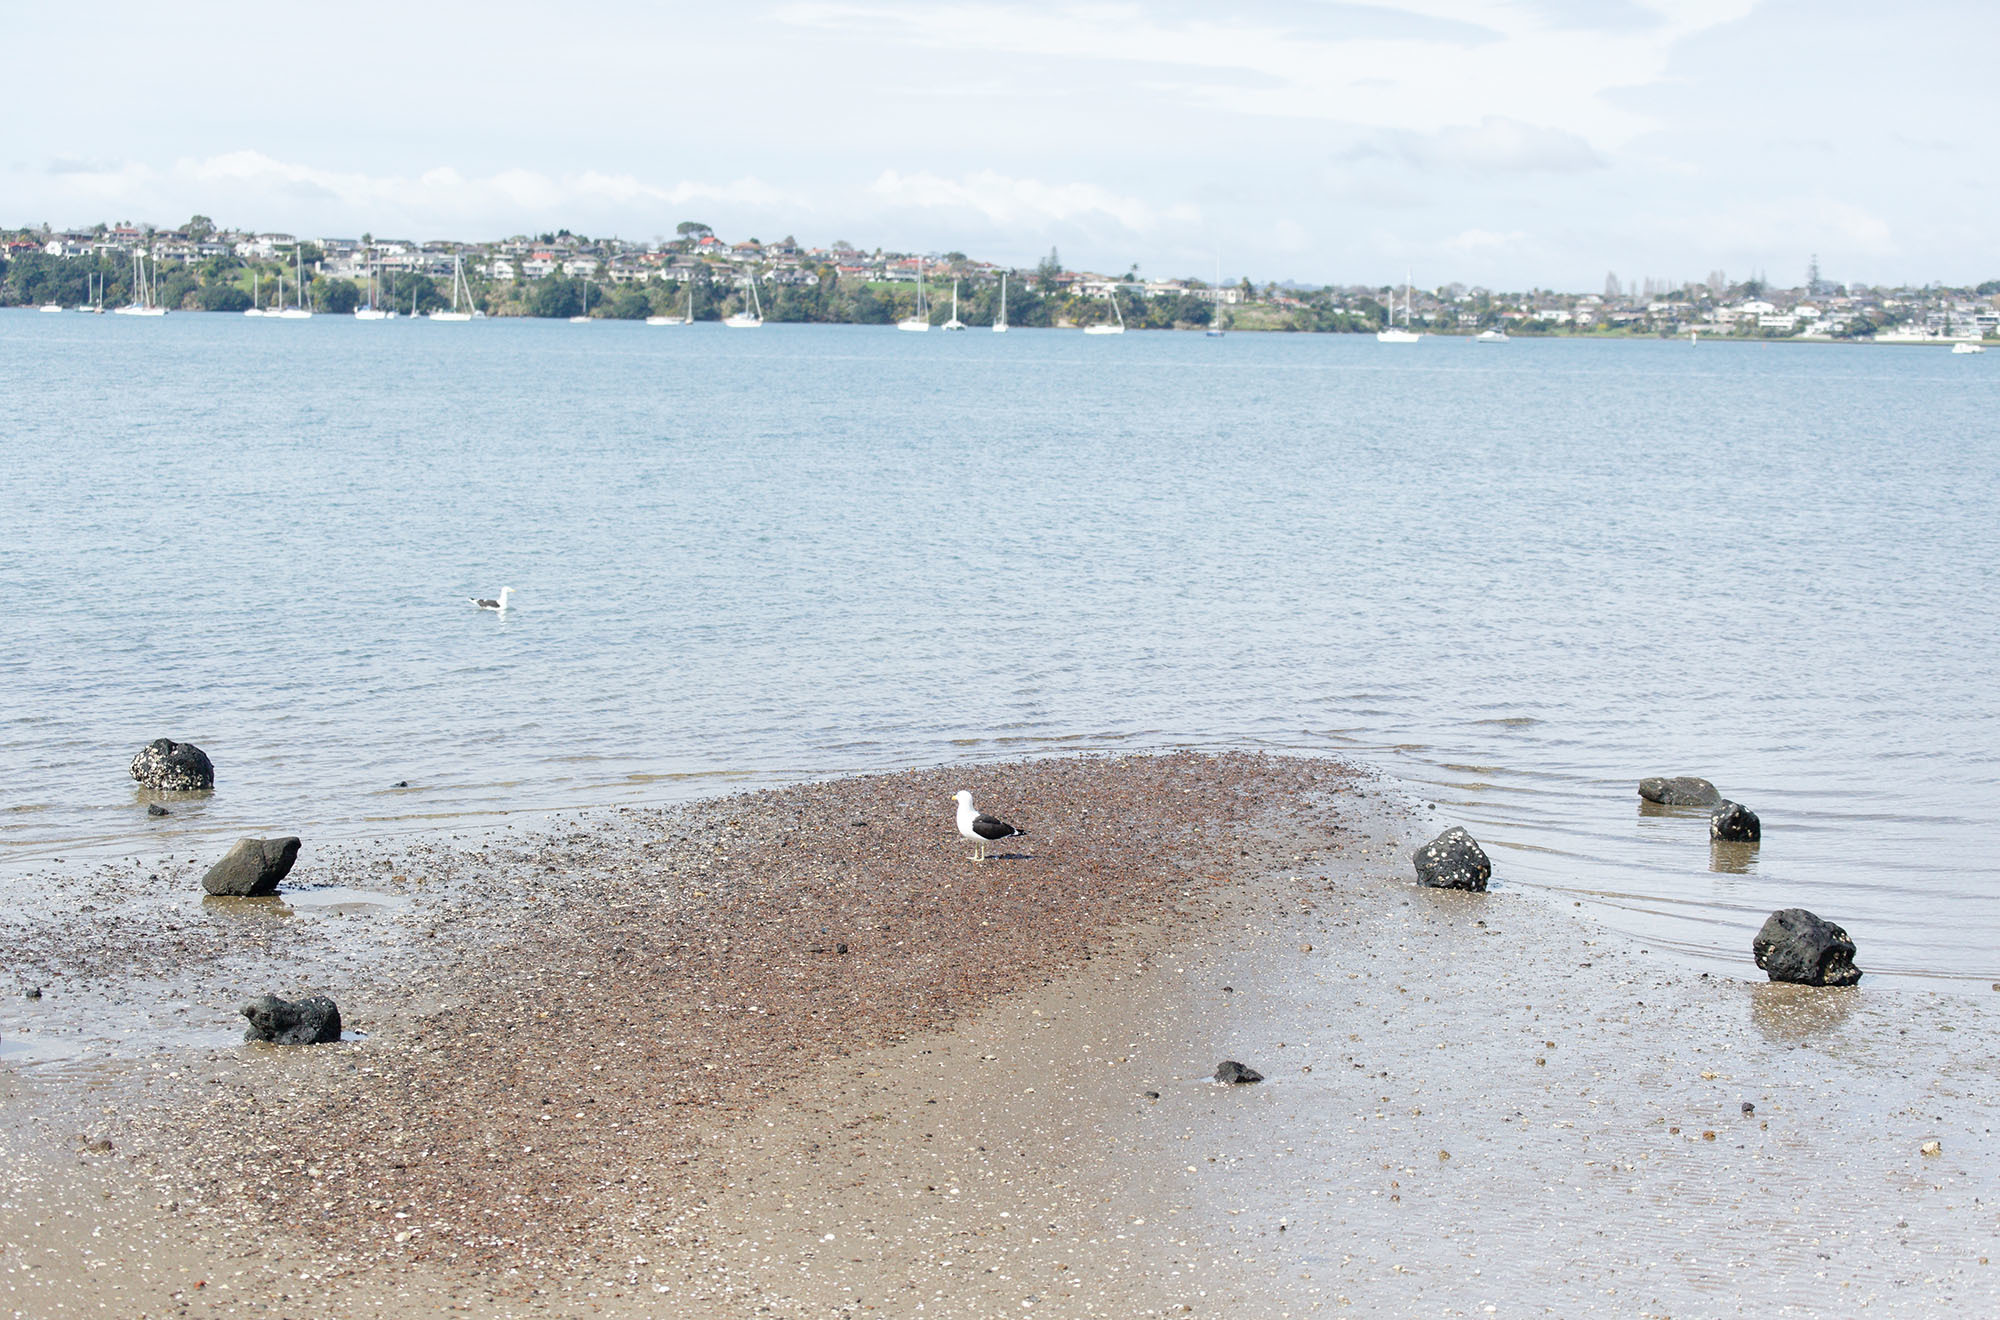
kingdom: Animalia
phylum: Chordata
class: Aves
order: Charadriiformes
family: Laridae
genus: Larus
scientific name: Larus dominicanus
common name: Kelp gull
